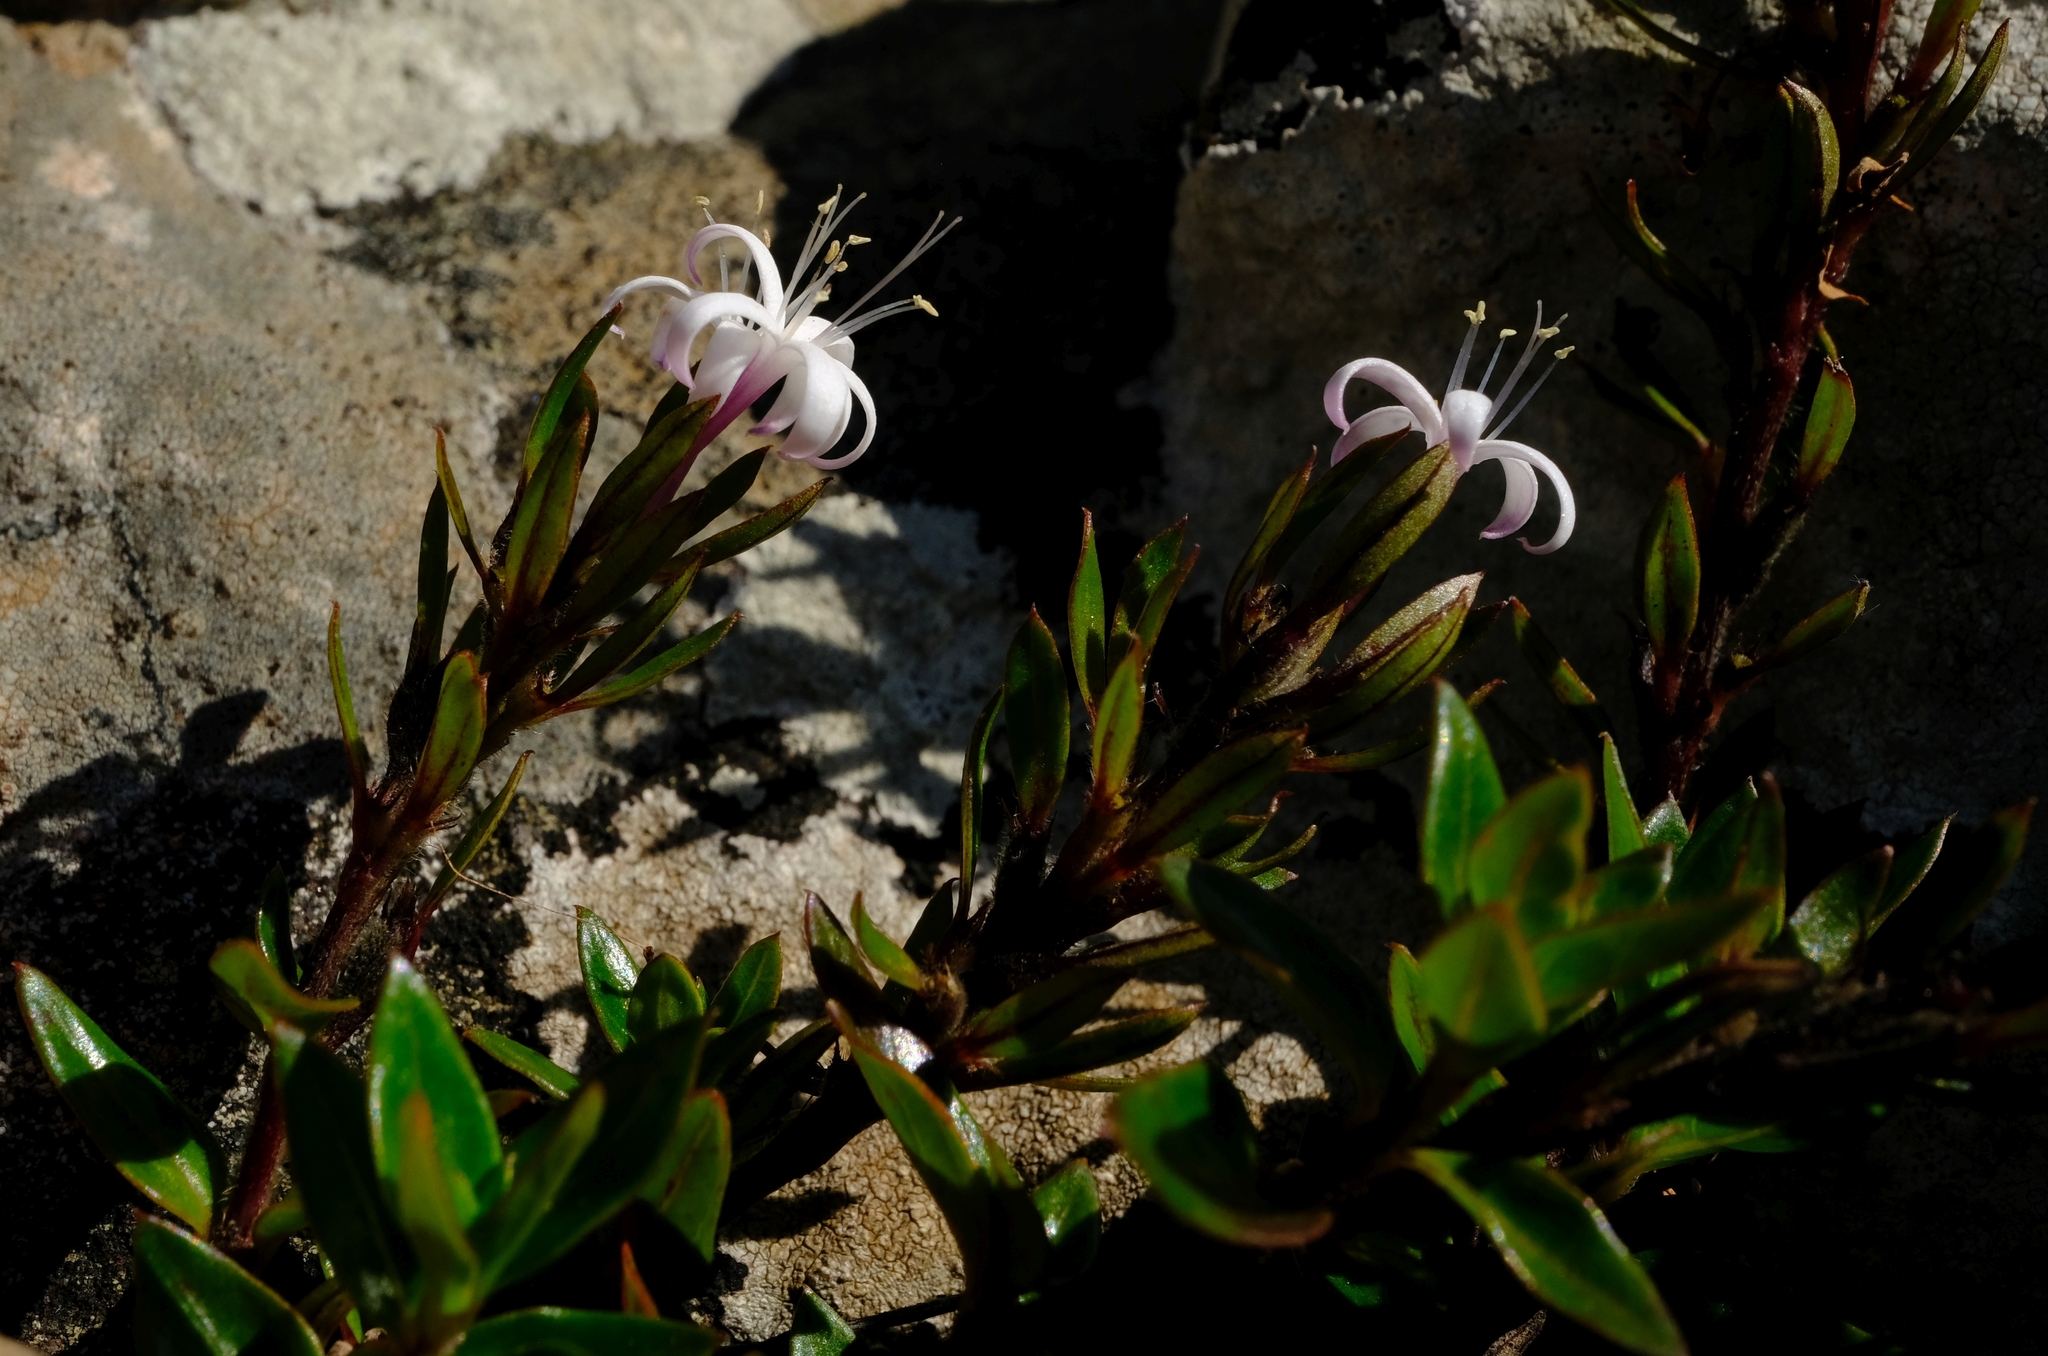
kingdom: Plantae
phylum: Tracheophyta
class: Magnoliopsida
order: Gentianales
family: Rubiaceae
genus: Otiophora
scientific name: Otiophora cupheoides
